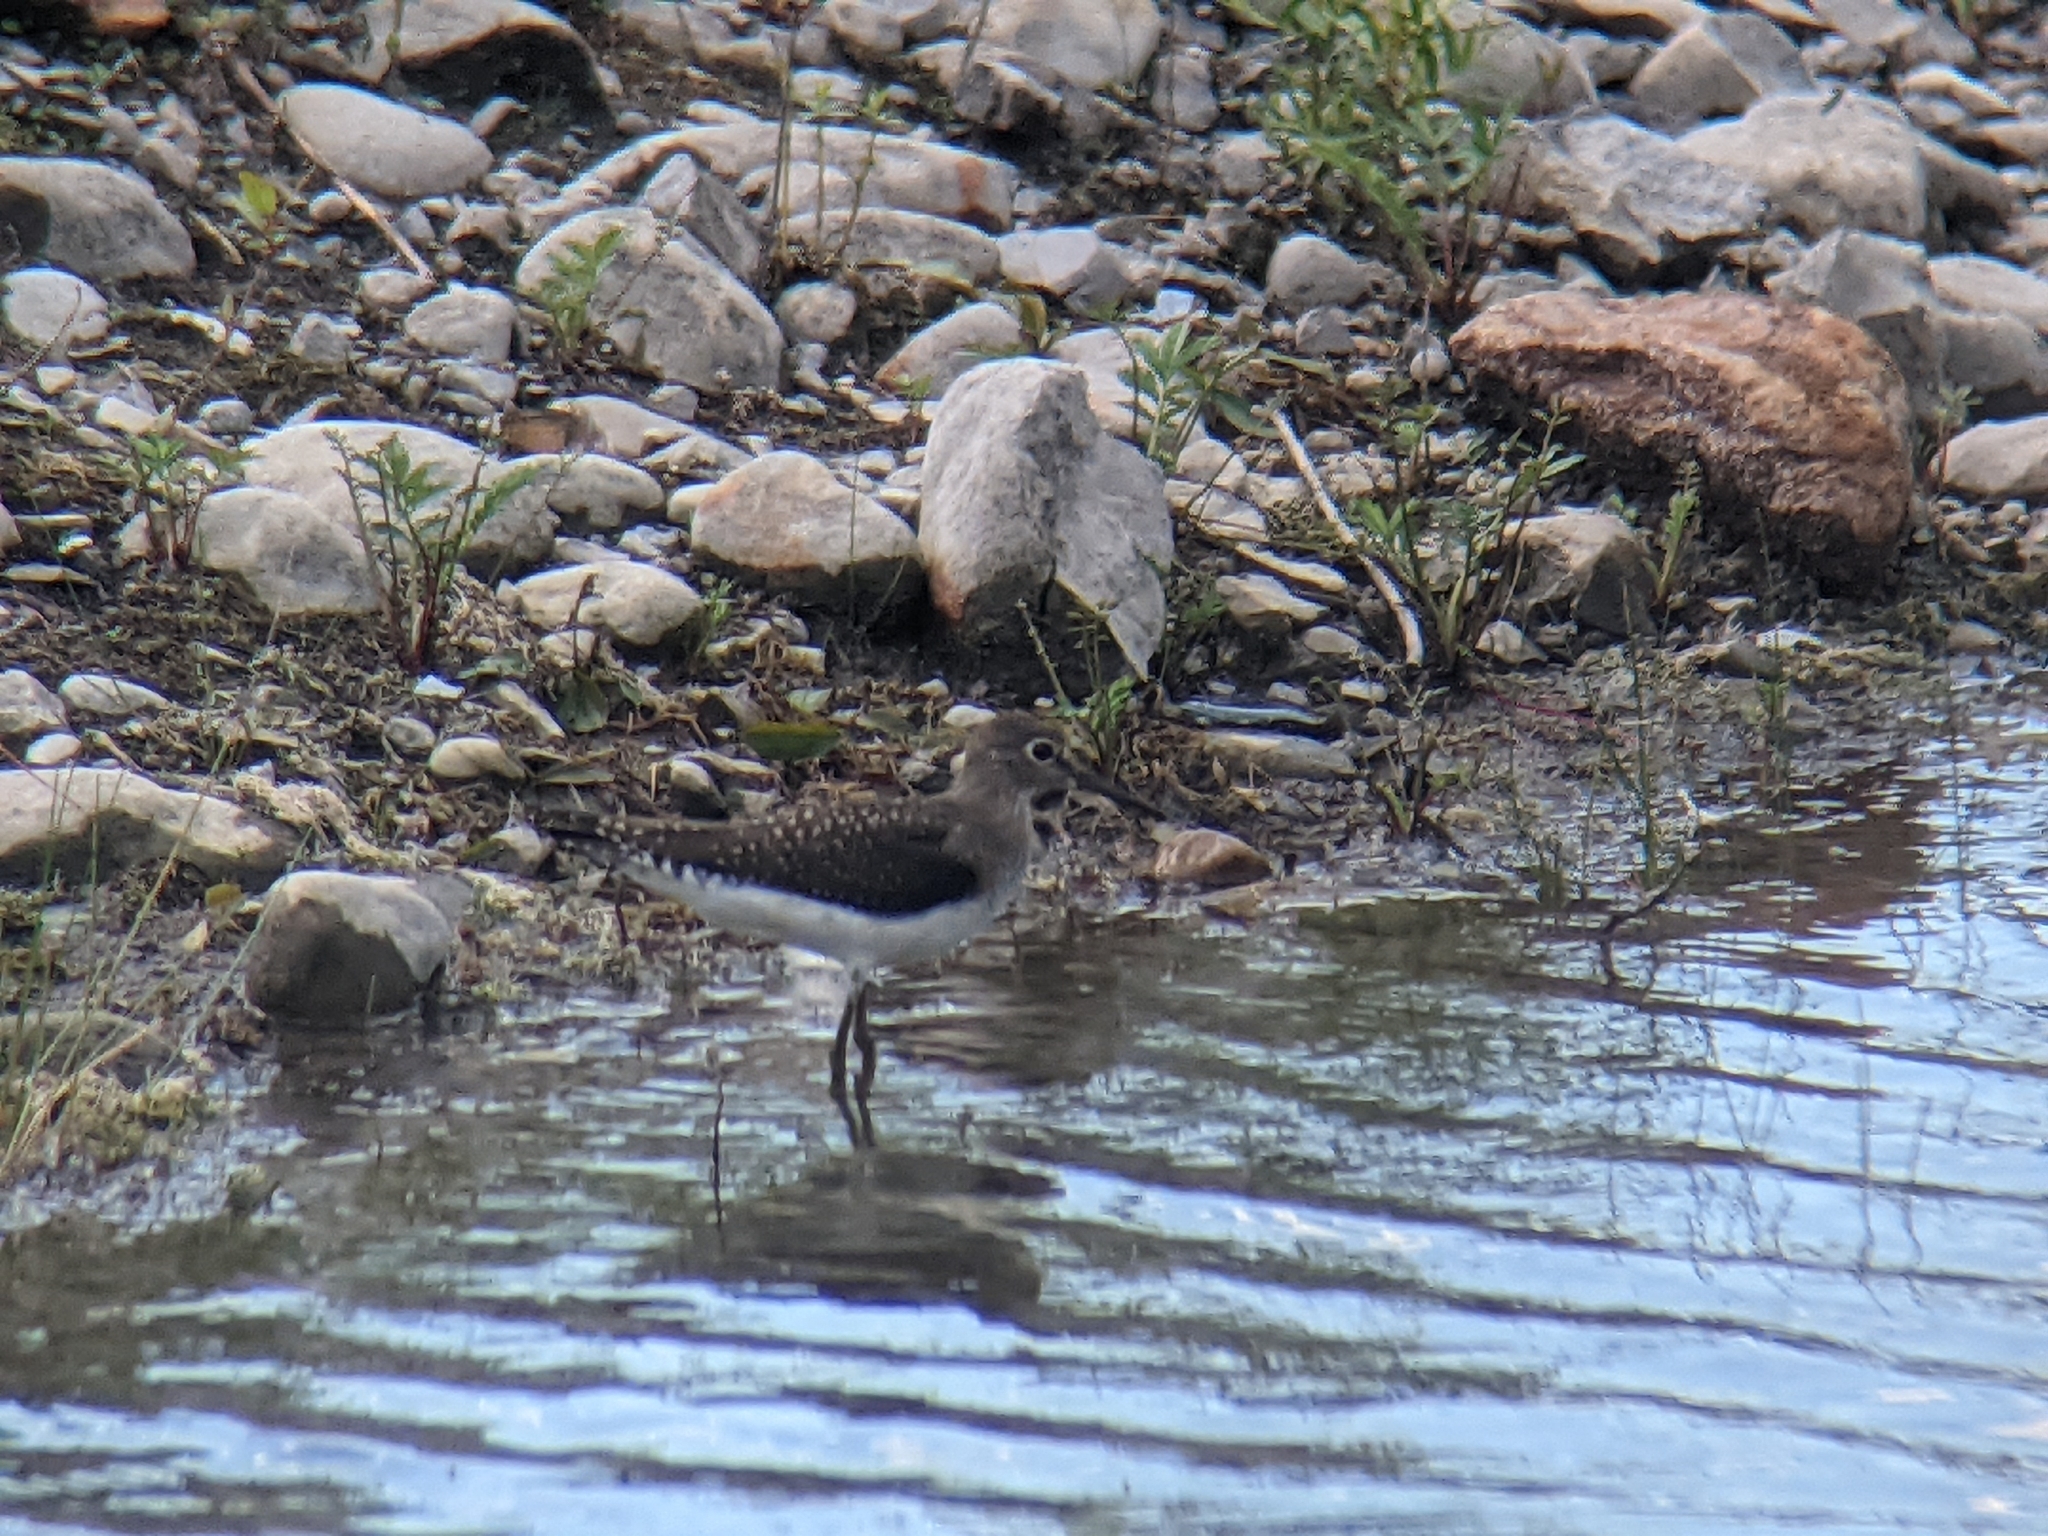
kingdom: Animalia
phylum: Chordata
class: Aves
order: Charadriiformes
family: Scolopacidae
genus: Tringa
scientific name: Tringa solitaria
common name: Solitary sandpiper
